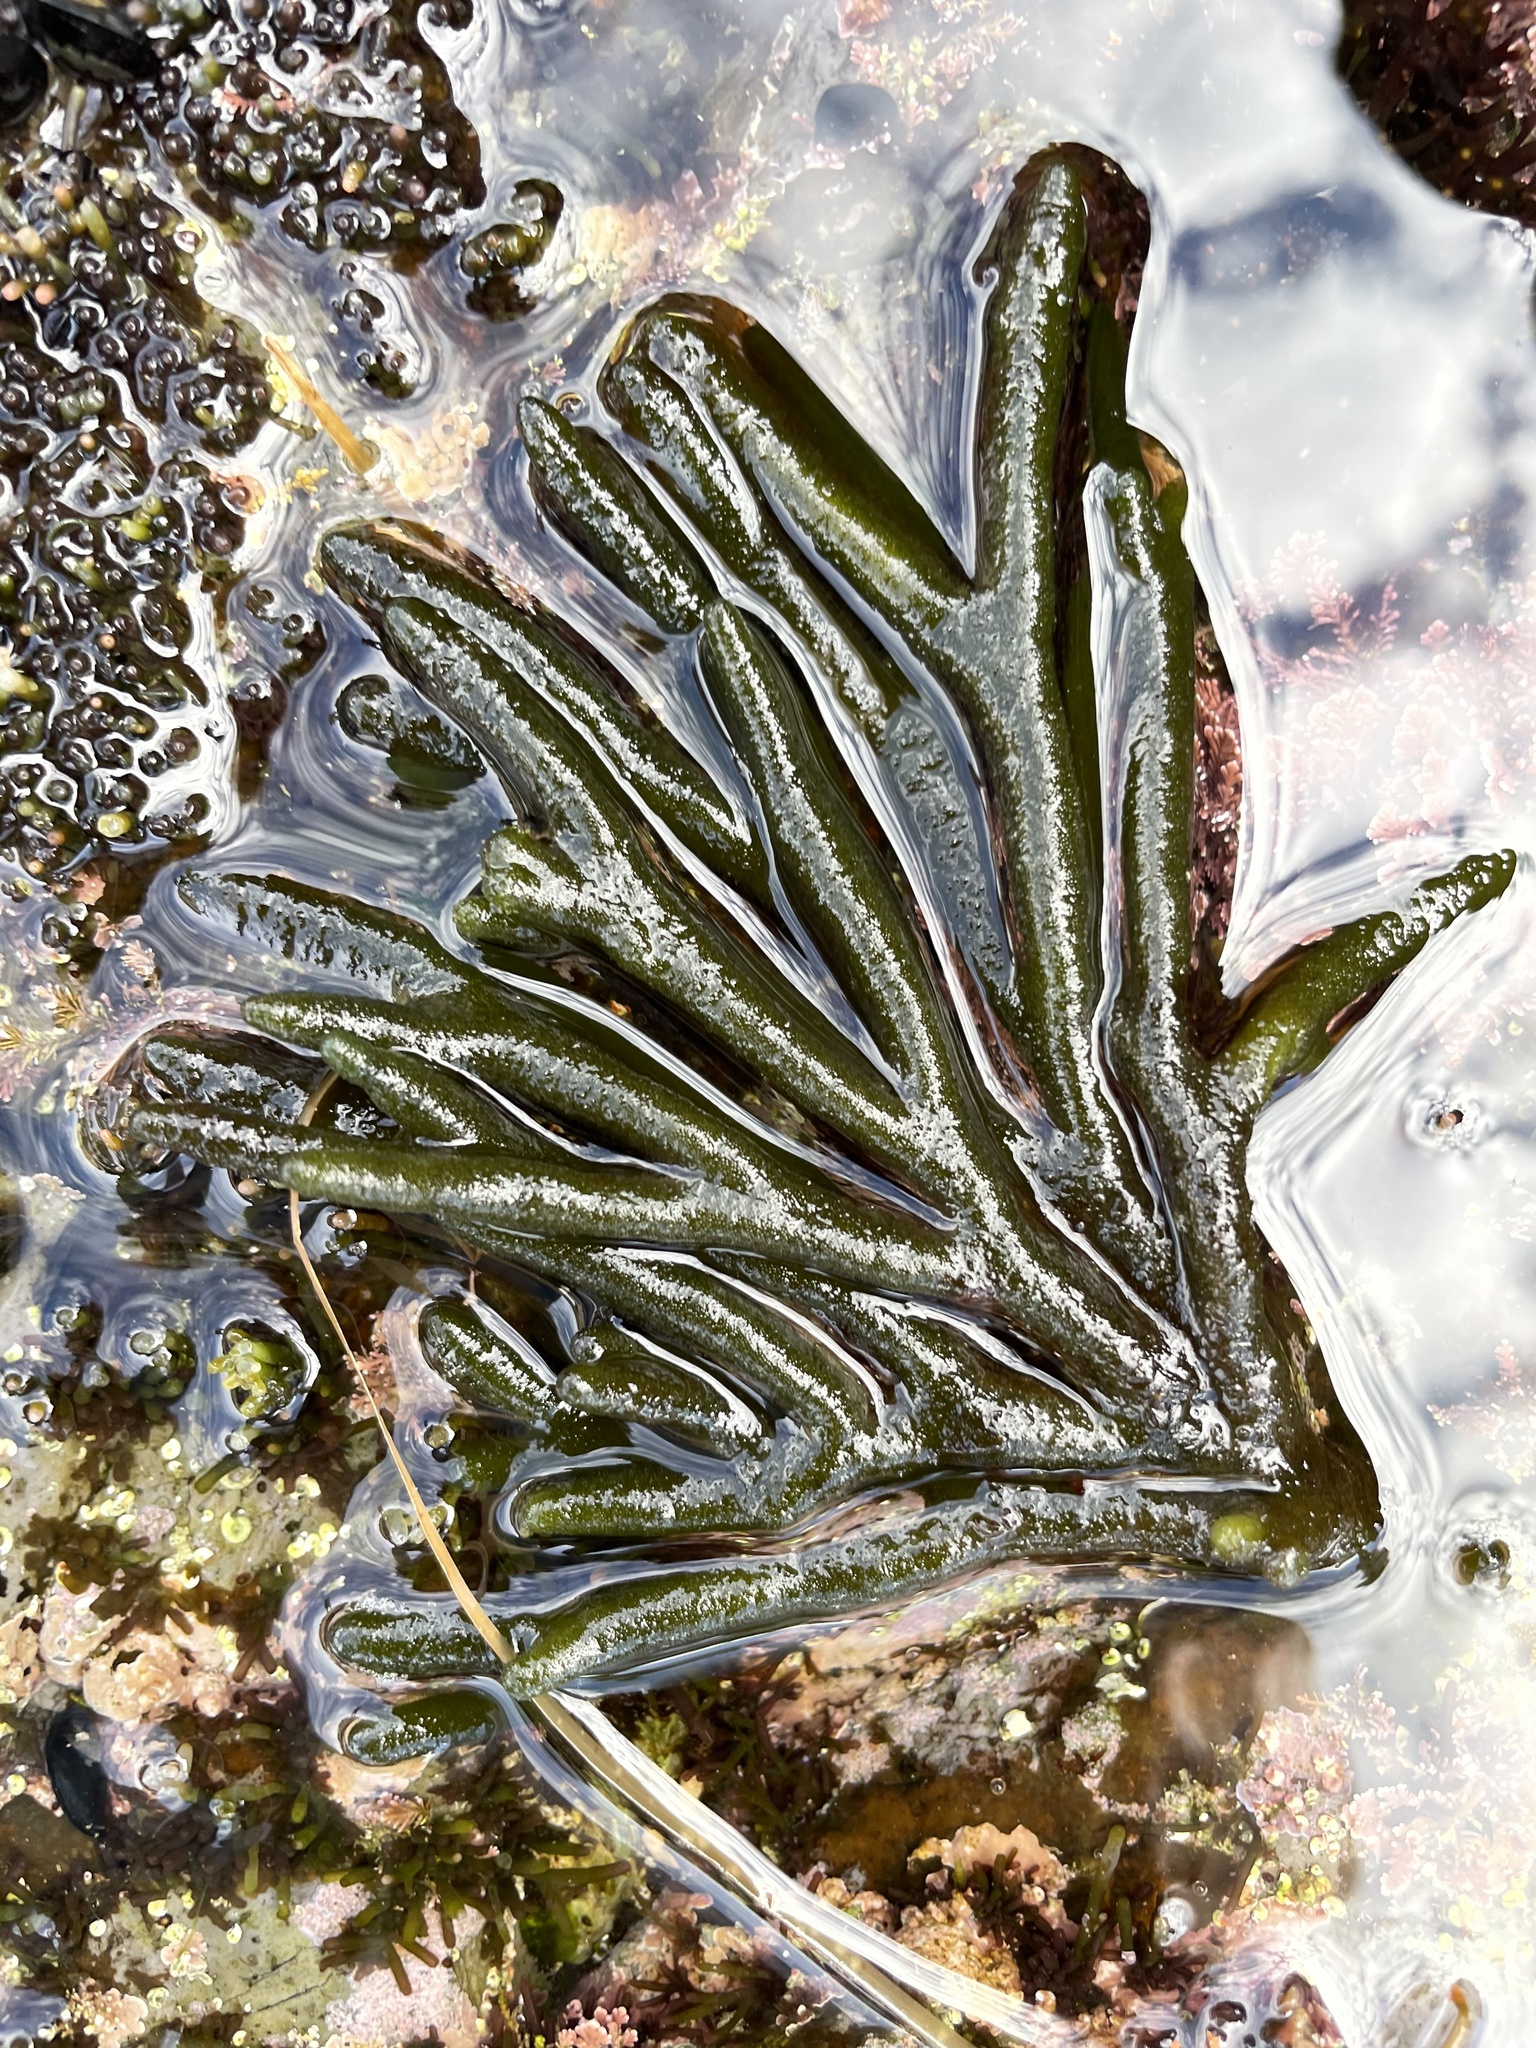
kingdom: Plantae
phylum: Chlorophyta
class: Ulvophyceae
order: Bryopsidales
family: Codiaceae
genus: Codium
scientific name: Codium fragile
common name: Dead man's fingers
